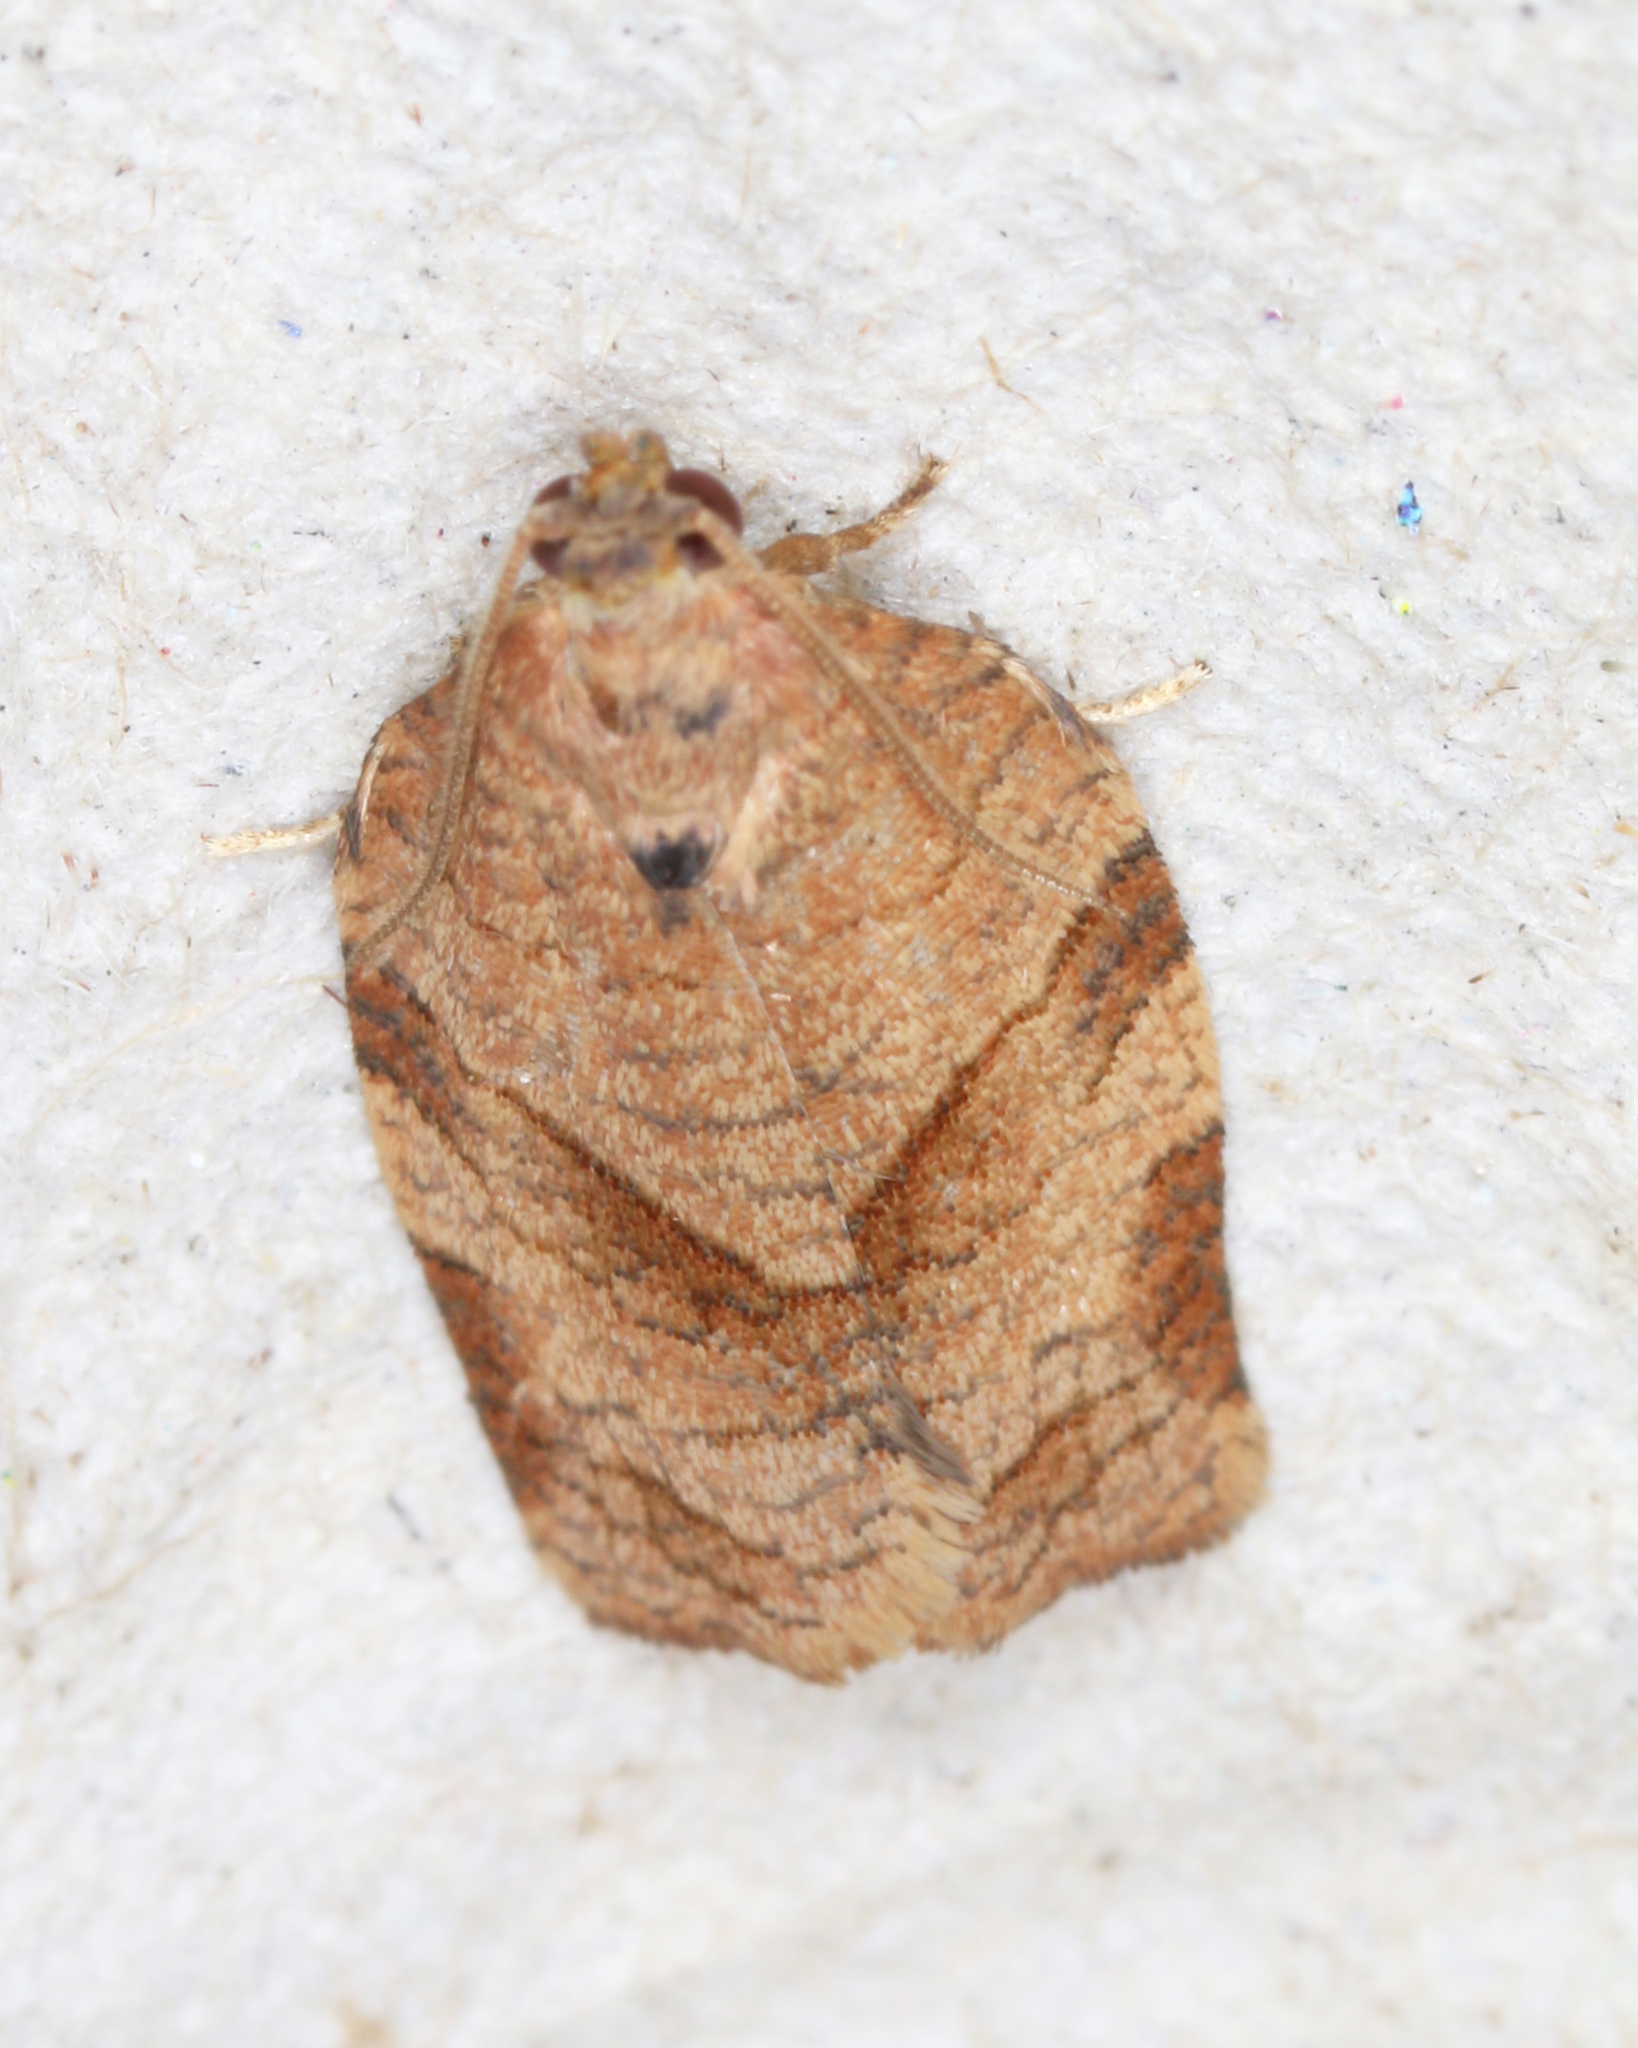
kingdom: Animalia
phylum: Arthropoda
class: Insecta
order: Lepidoptera
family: Tortricidae
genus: Choristoneura
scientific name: Choristoneura rosaceana
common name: Oblique-banded leafroller moth
